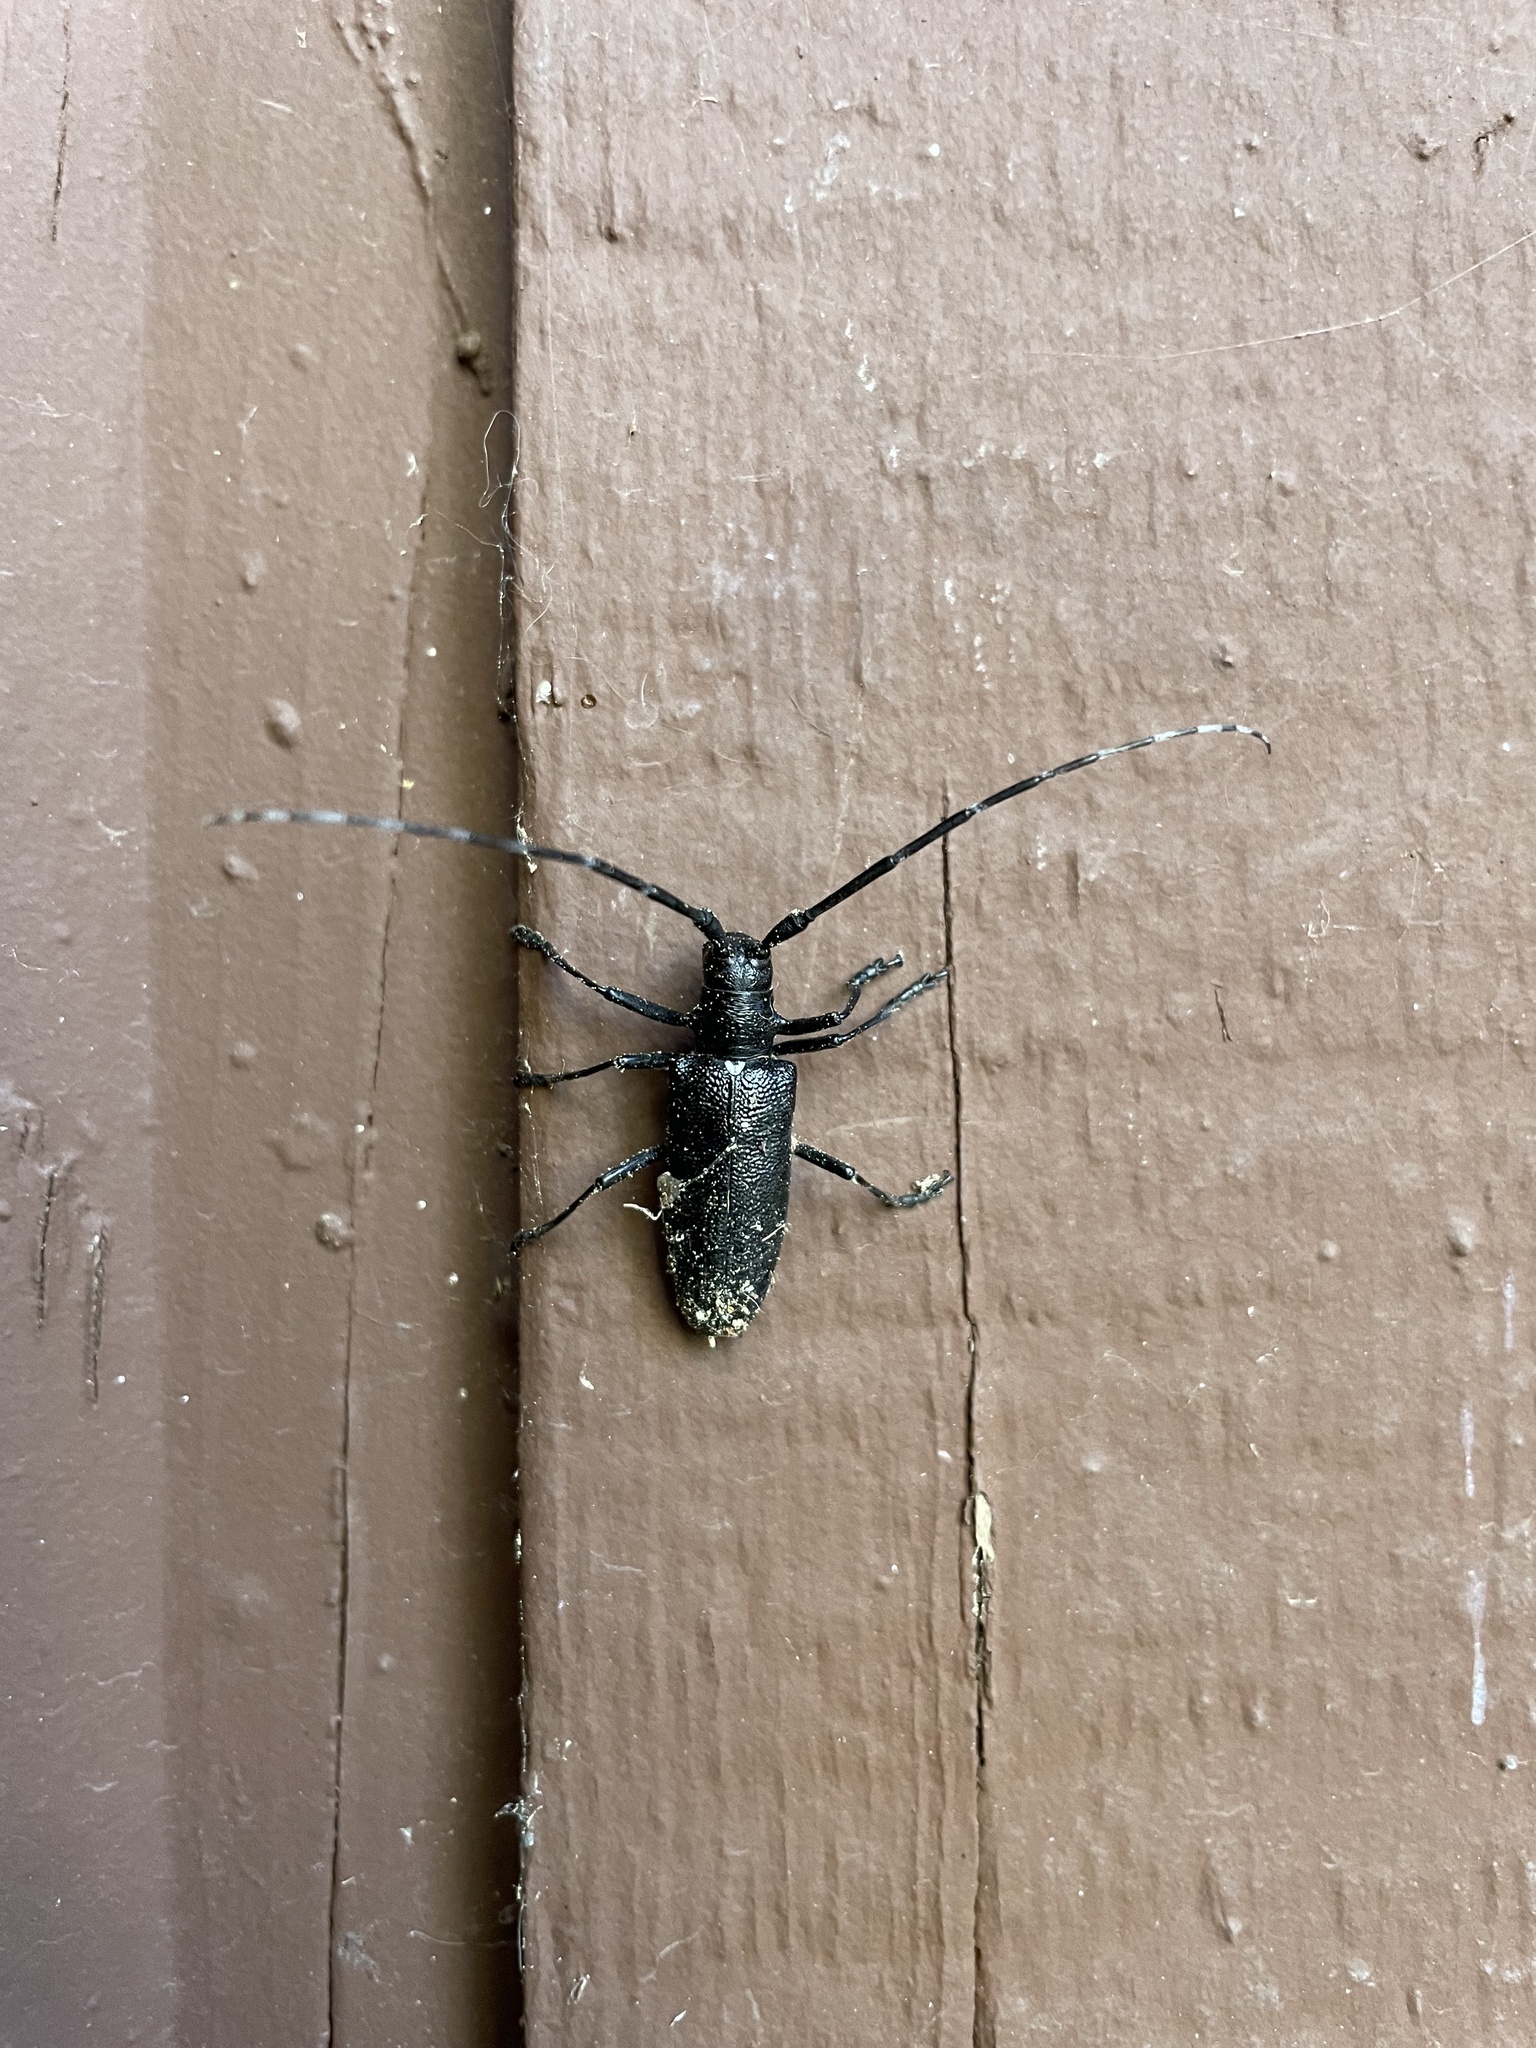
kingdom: Animalia
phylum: Arthropoda
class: Insecta
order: Coleoptera
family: Cerambycidae
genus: Monochamus
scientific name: Monochamus scutellatus
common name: White-spotted sawyer beetle
